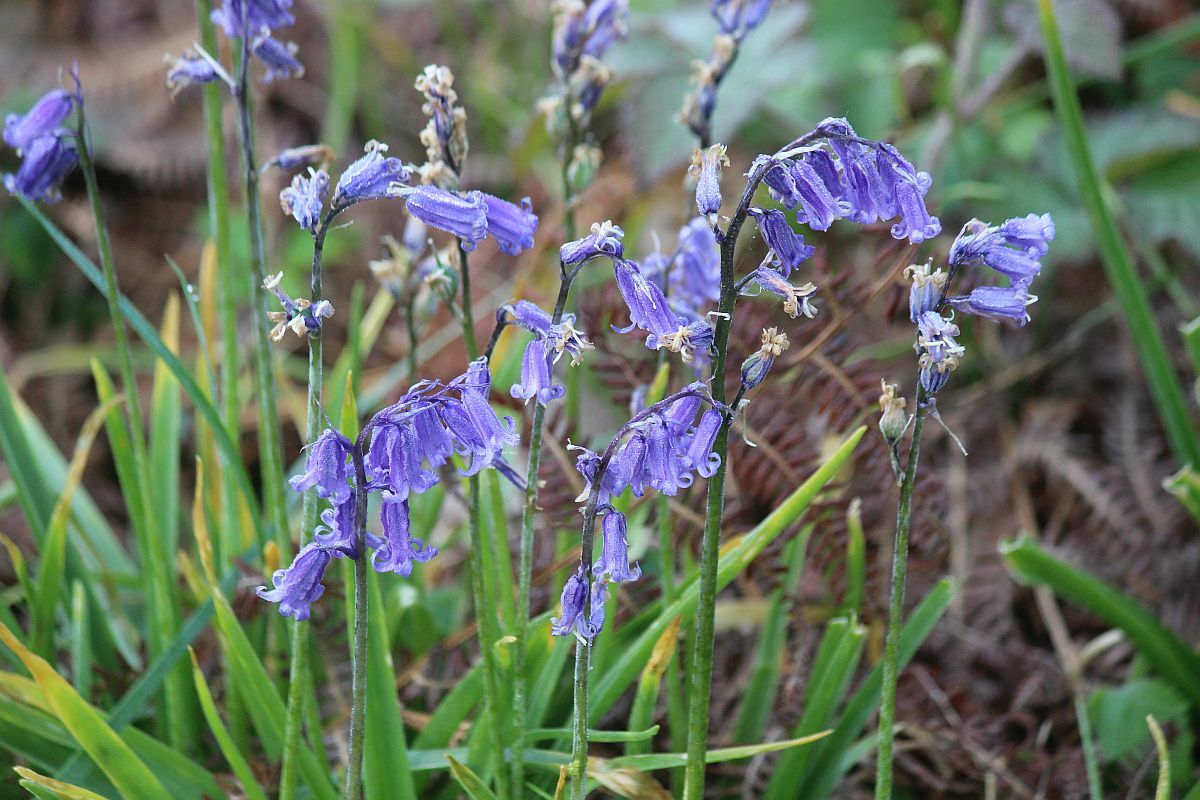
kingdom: Plantae
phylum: Tracheophyta
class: Liliopsida
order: Asparagales
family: Asparagaceae
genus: Hyacinthoides
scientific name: Hyacinthoides non-scripta
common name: Bluebell
